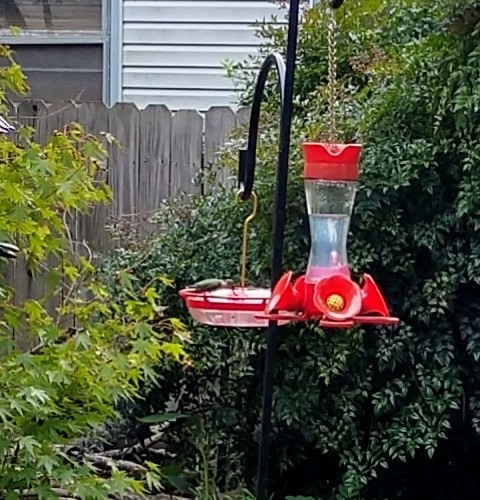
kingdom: Animalia
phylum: Chordata
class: Aves
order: Apodiformes
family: Trochilidae
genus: Archilochus
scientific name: Archilochus colubris
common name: Ruby-throated hummingbird
